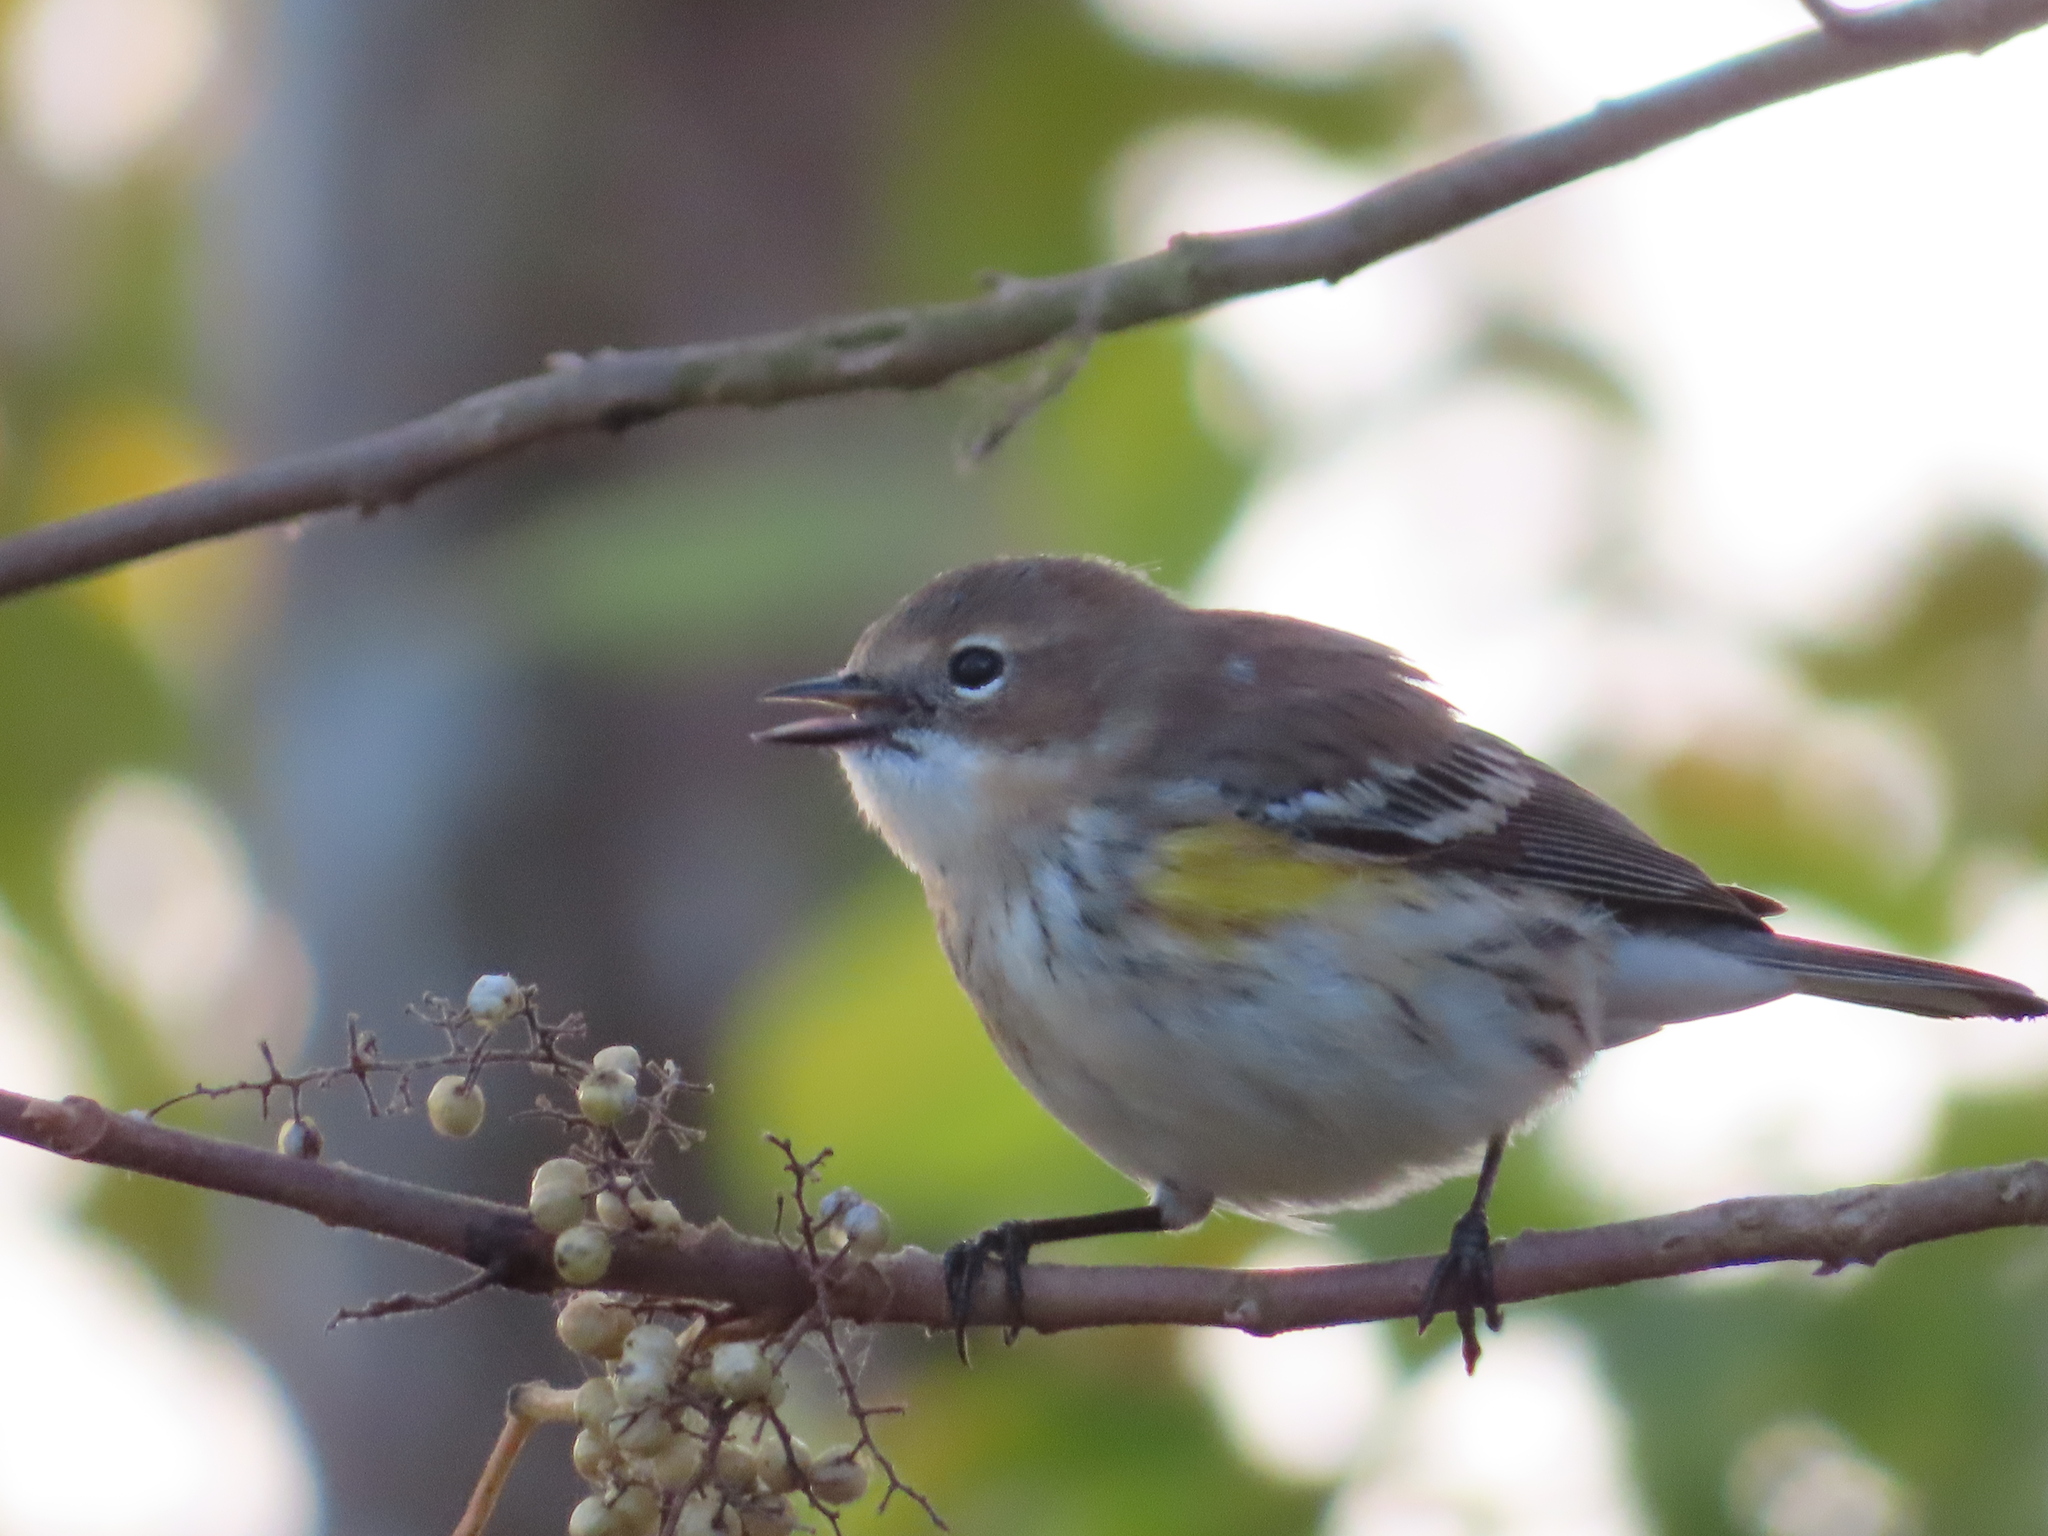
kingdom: Animalia
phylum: Chordata
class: Aves
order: Passeriformes
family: Parulidae
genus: Setophaga
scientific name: Setophaga coronata
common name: Myrtle warbler
